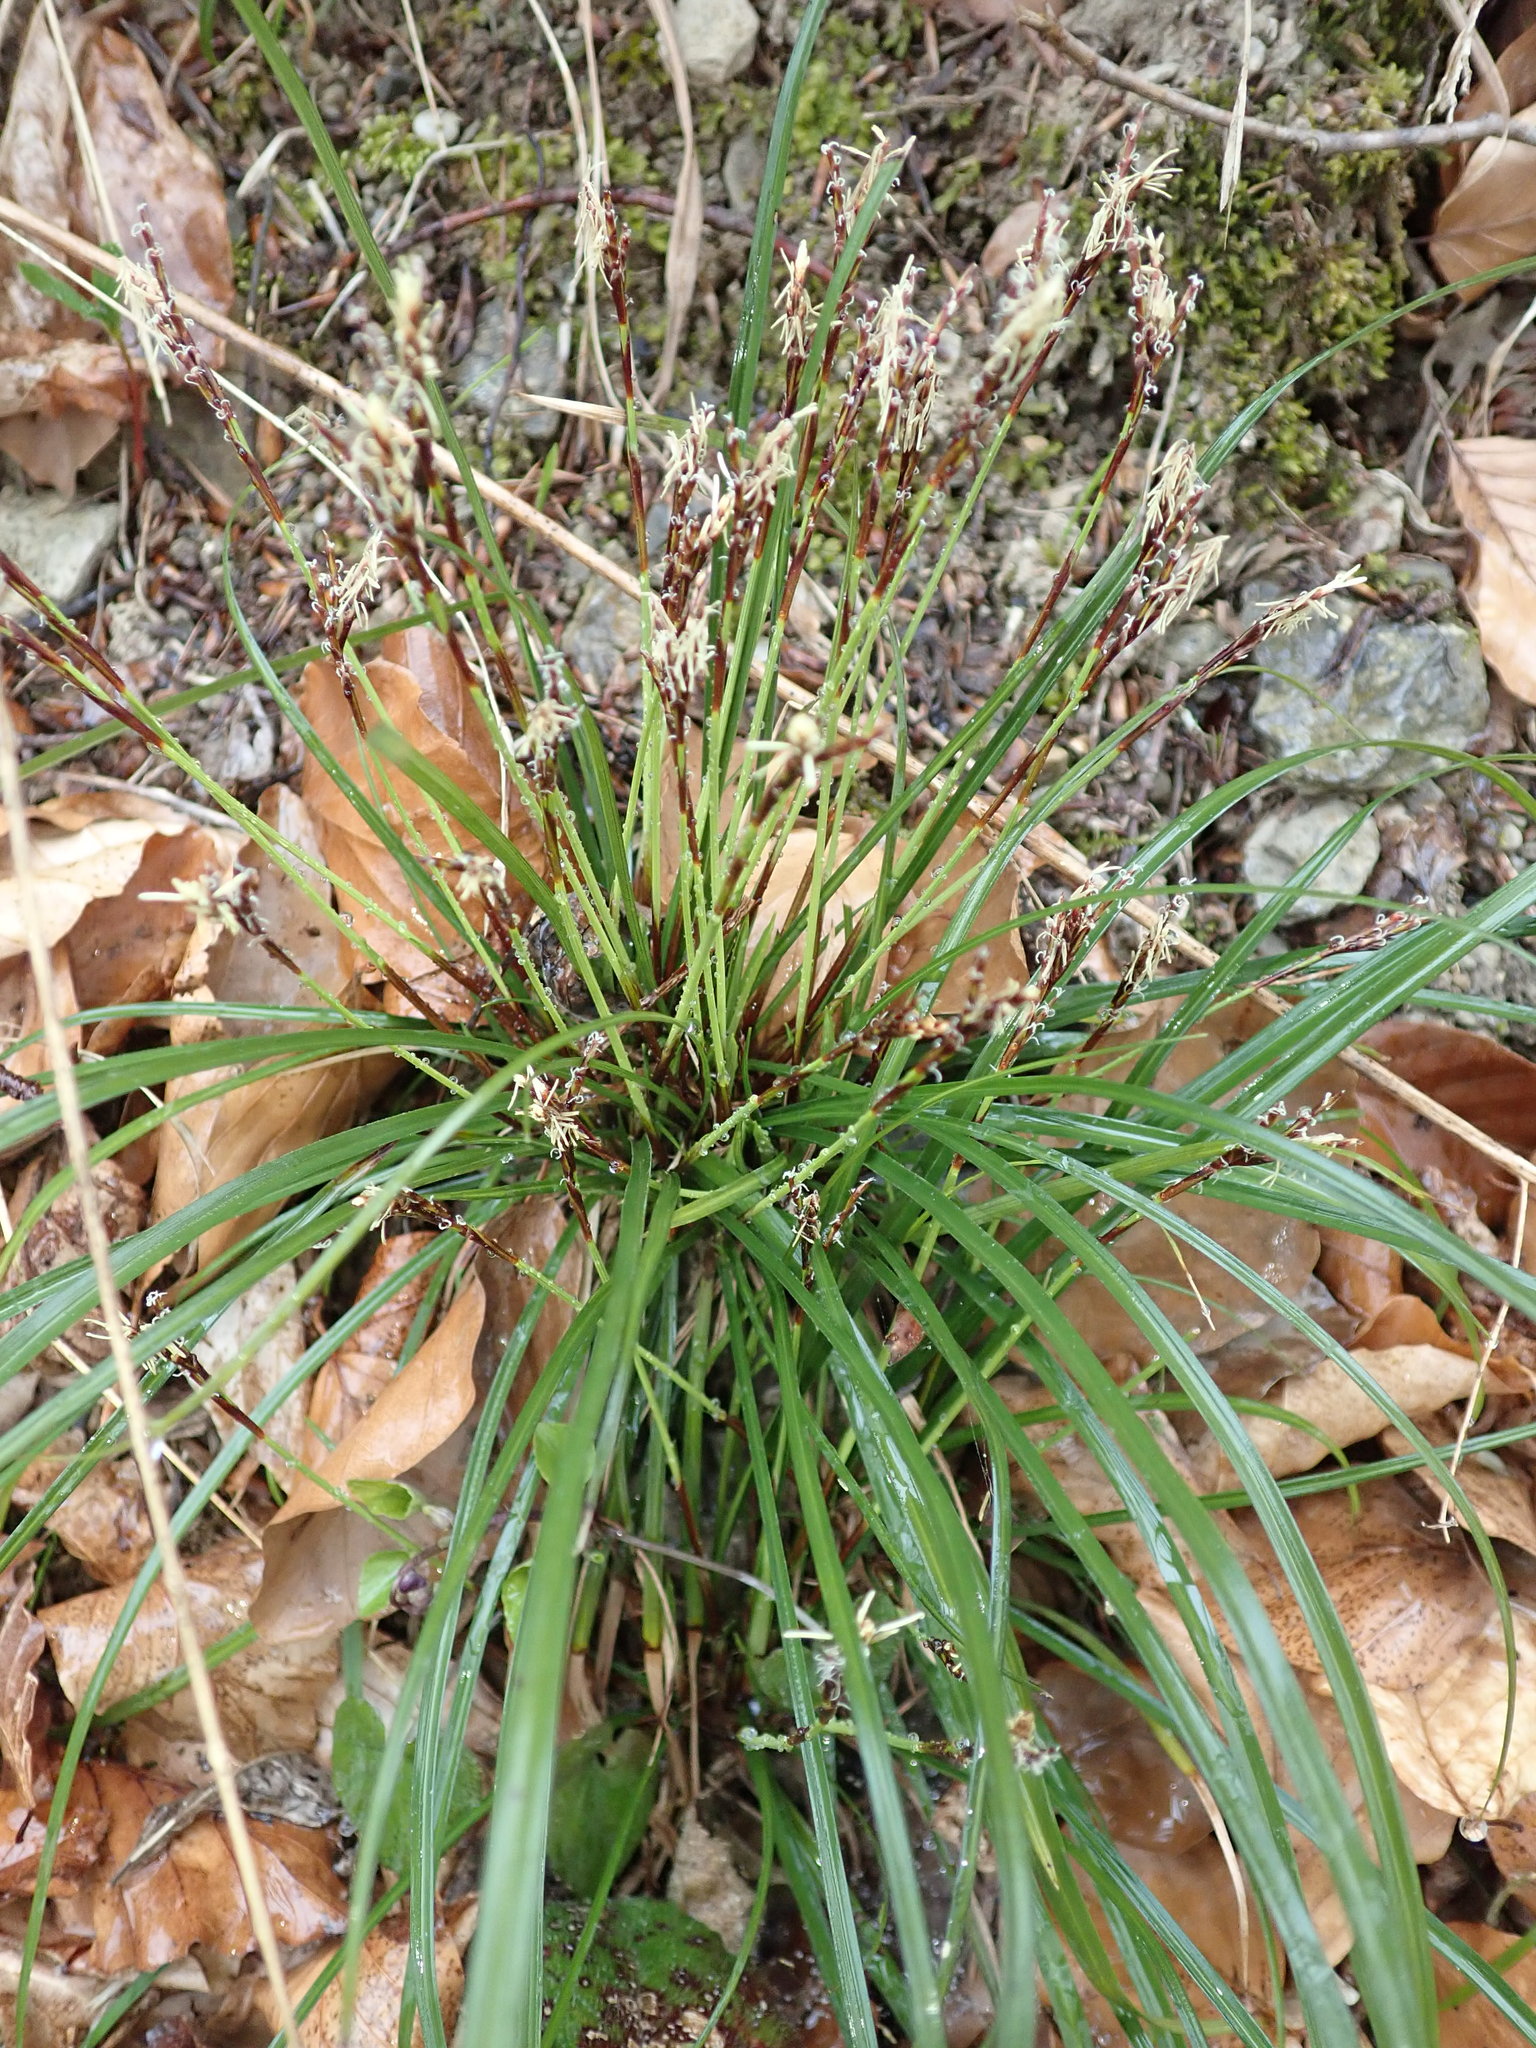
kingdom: Plantae
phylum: Tracheophyta
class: Liliopsida
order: Poales
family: Cyperaceae
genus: Carex
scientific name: Carex digitata
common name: Fingered sedge
